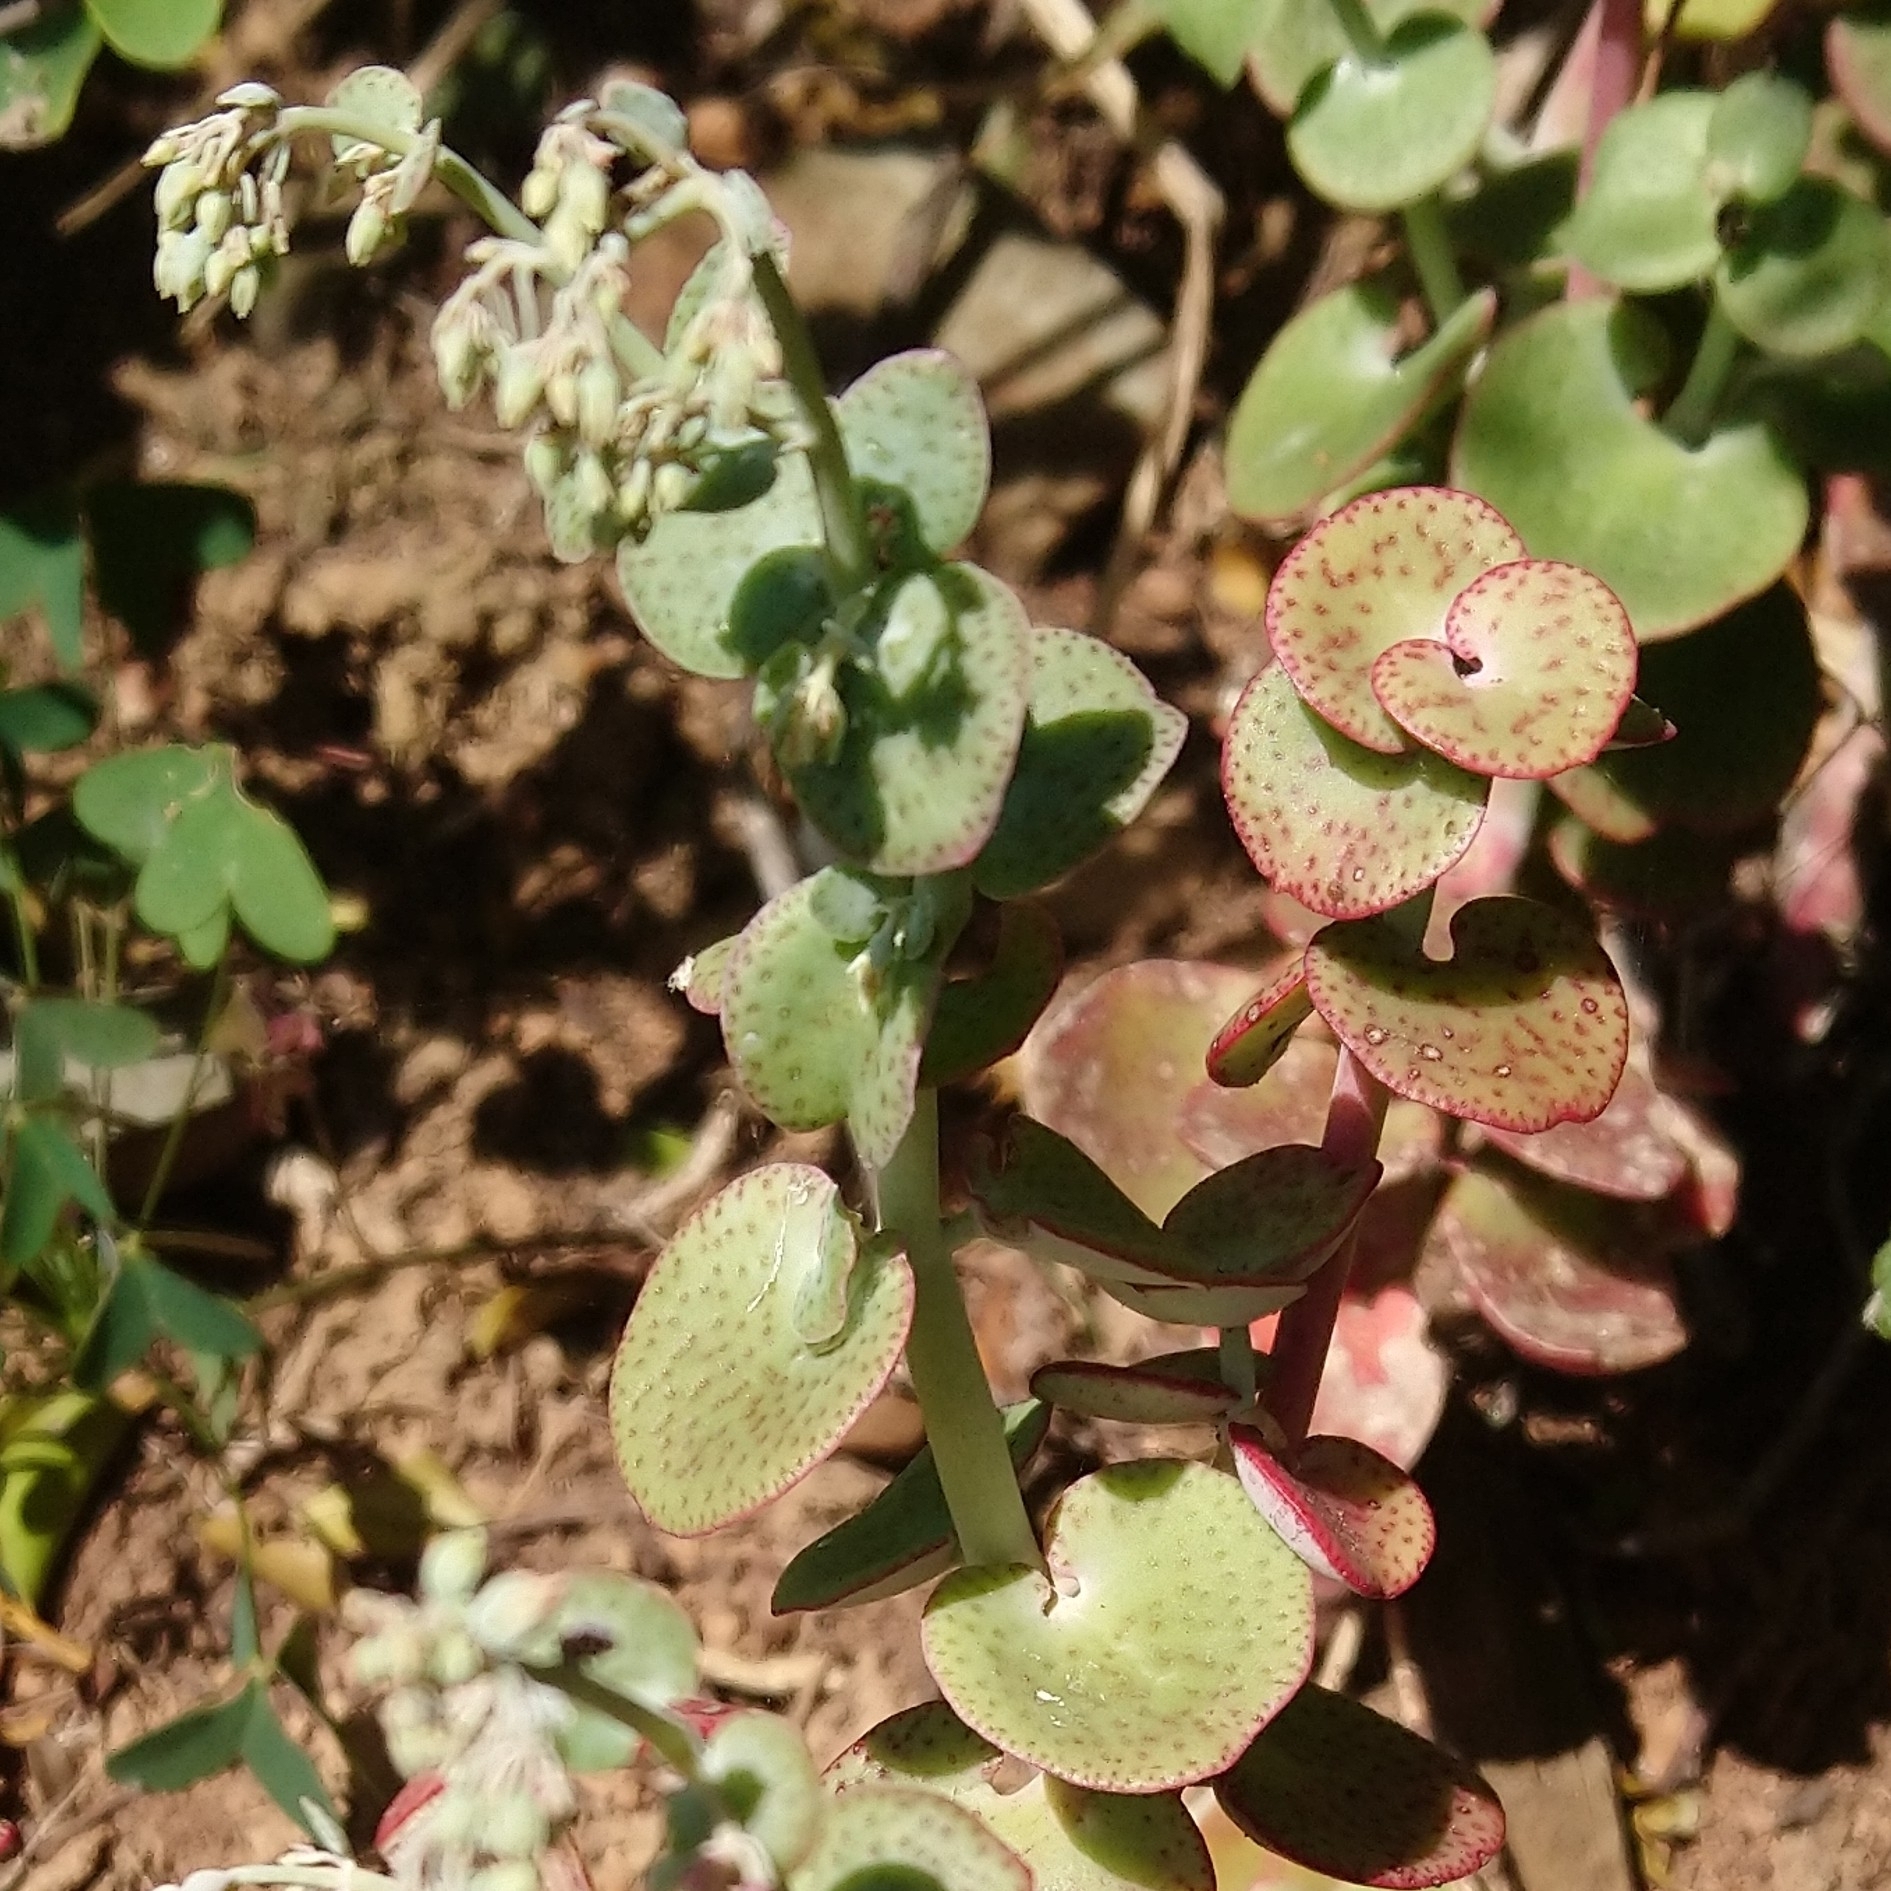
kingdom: Plantae
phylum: Tracheophyta
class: Magnoliopsida
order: Saxifragales
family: Crassulaceae
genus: Crassula
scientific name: Crassula cordata
